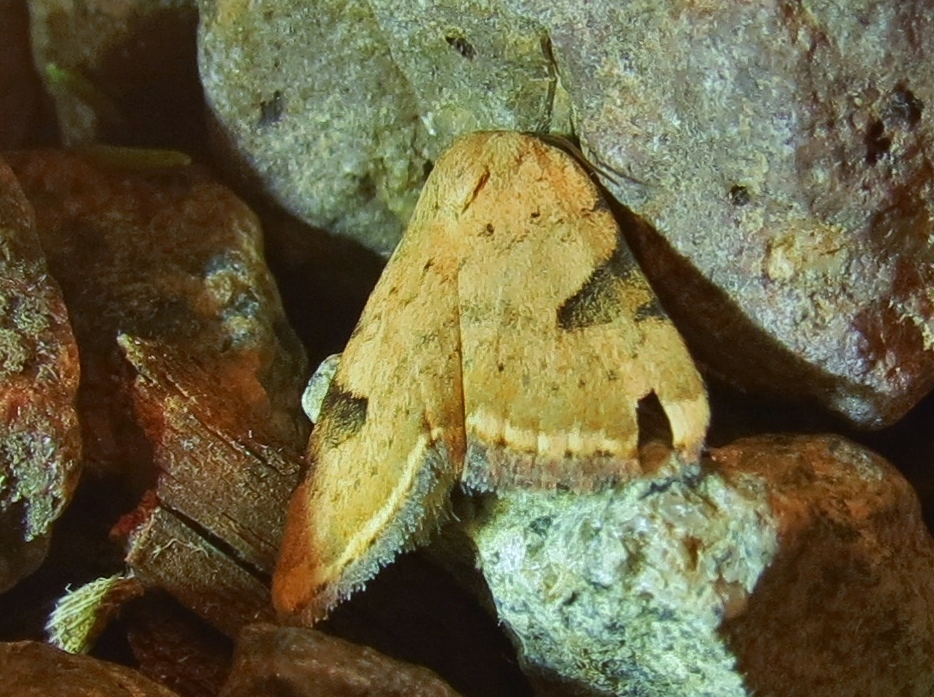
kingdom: Animalia
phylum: Arthropoda
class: Insecta
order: Lepidoptera
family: Noctuidae
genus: Micrathetis
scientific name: Micrathetis costiplaga
